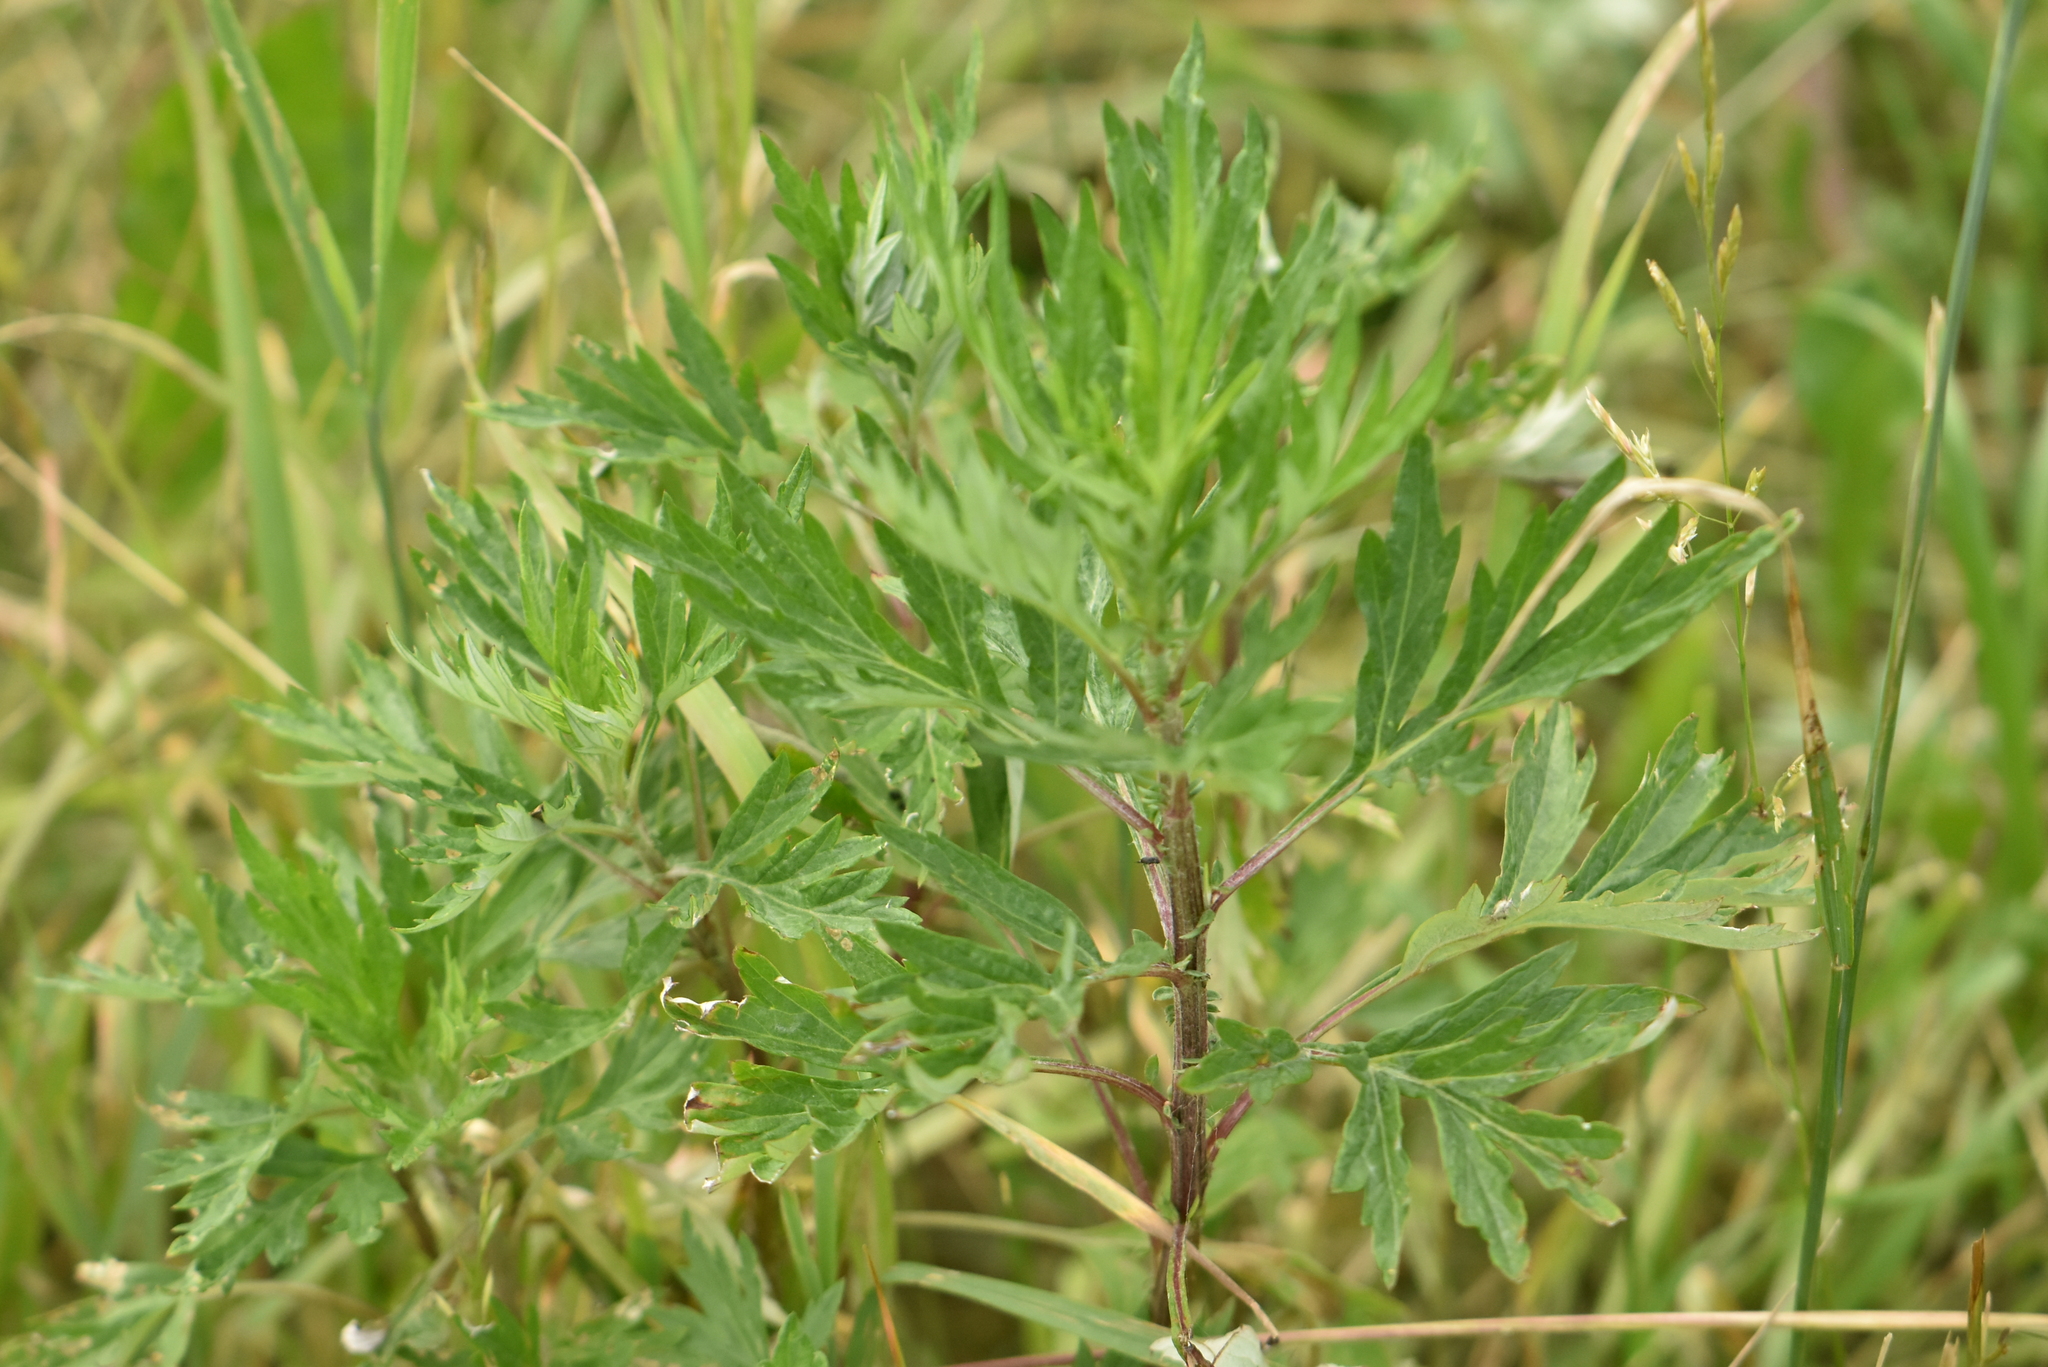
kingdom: Plantae
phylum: Tracheophyta
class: Magnoliopsida
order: Asterales
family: Asteraceae
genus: Artemisia
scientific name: Artemisia vulgaris
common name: Mugwort
